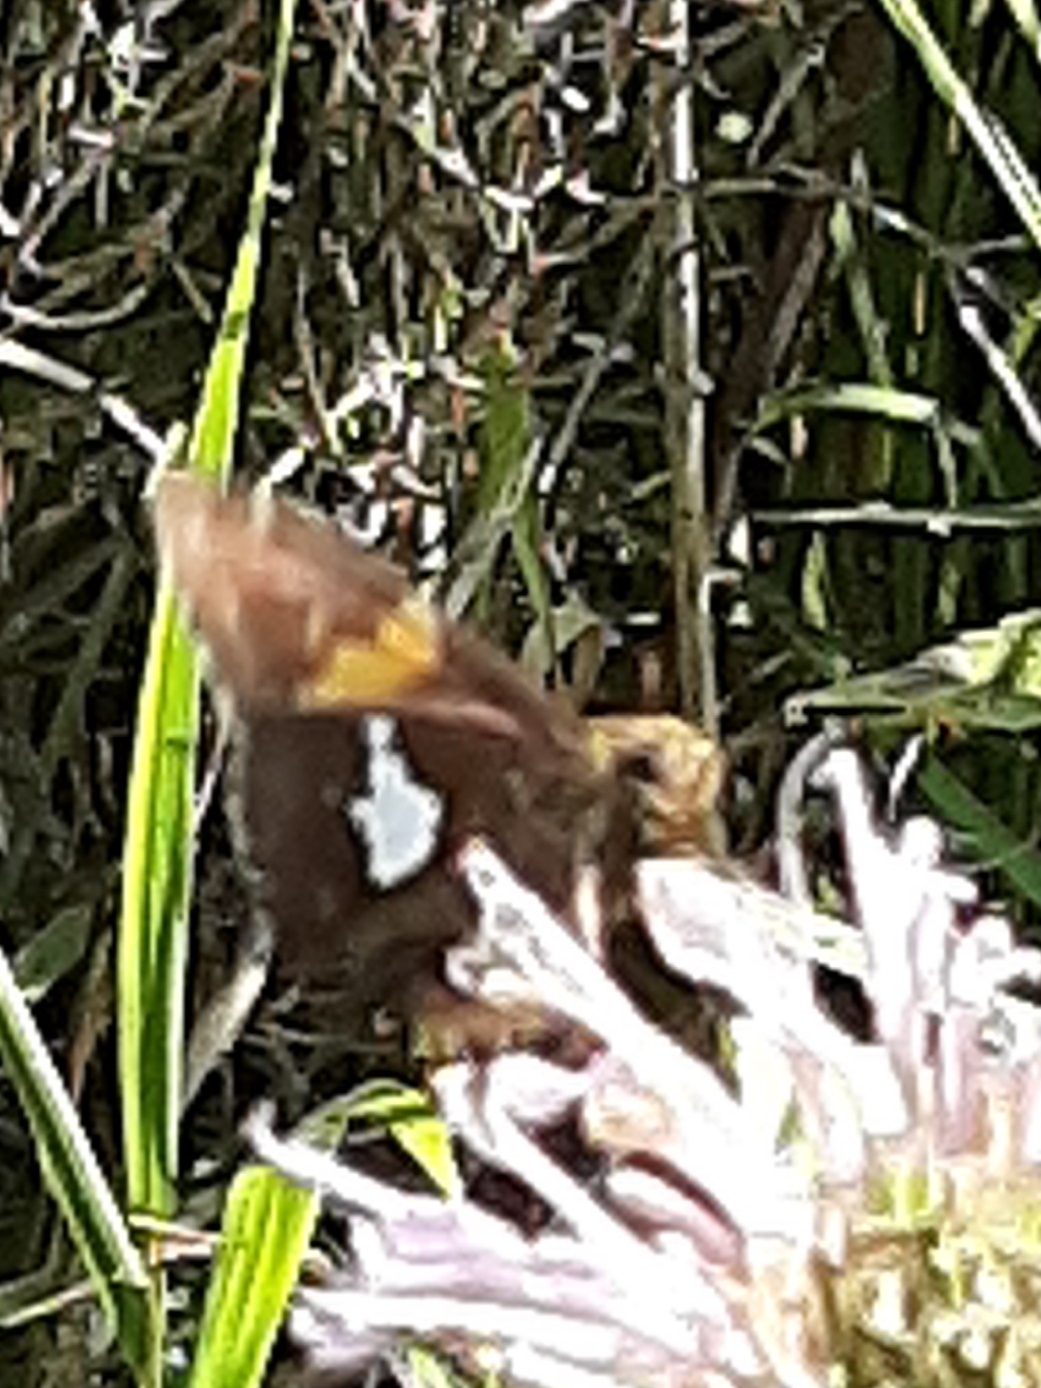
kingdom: Animalia
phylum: Arthropoda
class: Insecta
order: Lepidoptera
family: Hesperiidae
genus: Epargyreus
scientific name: Epargyreus clarus
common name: Silver-spotted skipper
